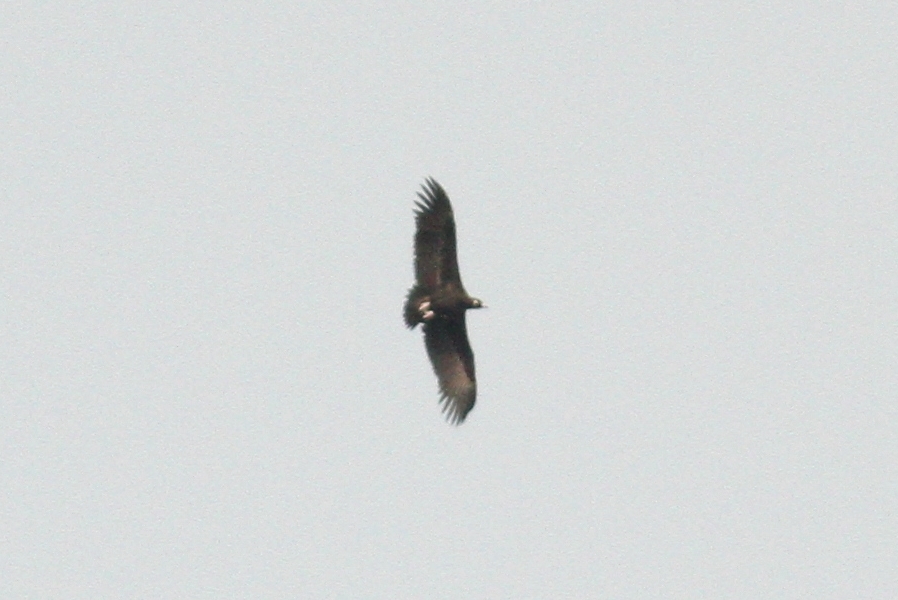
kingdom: Animalia
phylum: Chordata
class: Aves
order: Accipitriformes
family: Accipitridae
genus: Aegypius
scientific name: Aegypius monachus
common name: Cinereous vulture
